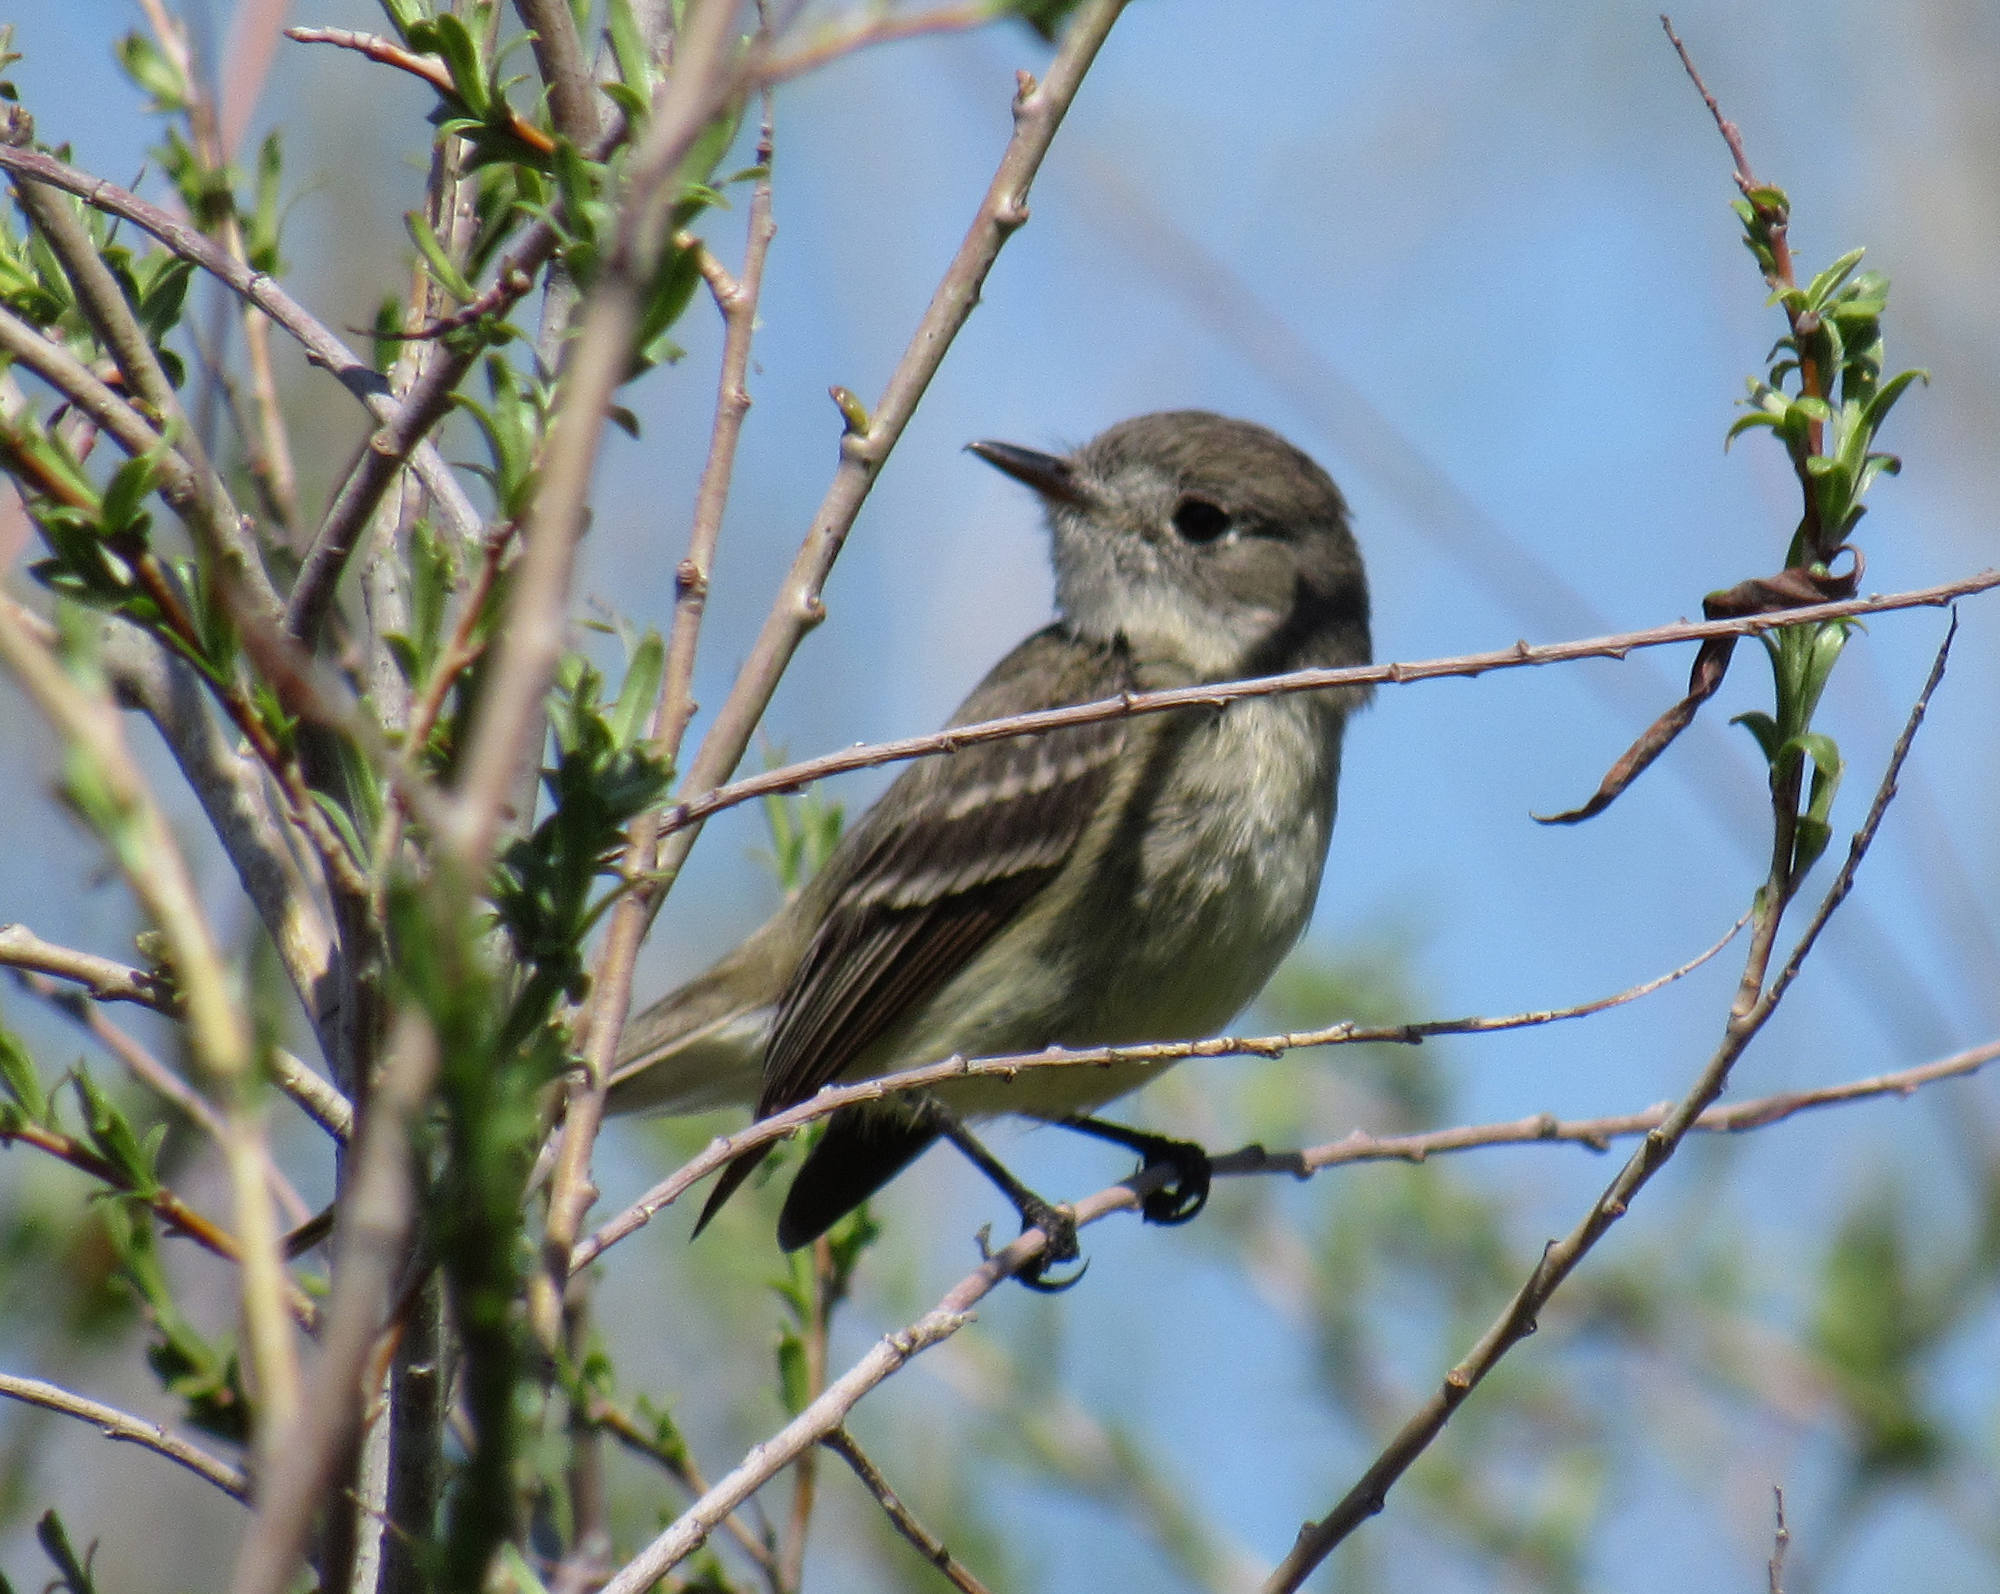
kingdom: Animalia
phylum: Chordata
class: Aves
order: Passeriformes
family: Tyrannidae
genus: Empidonax
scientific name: Empidonax oberholseri
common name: Dusky flycatcher
